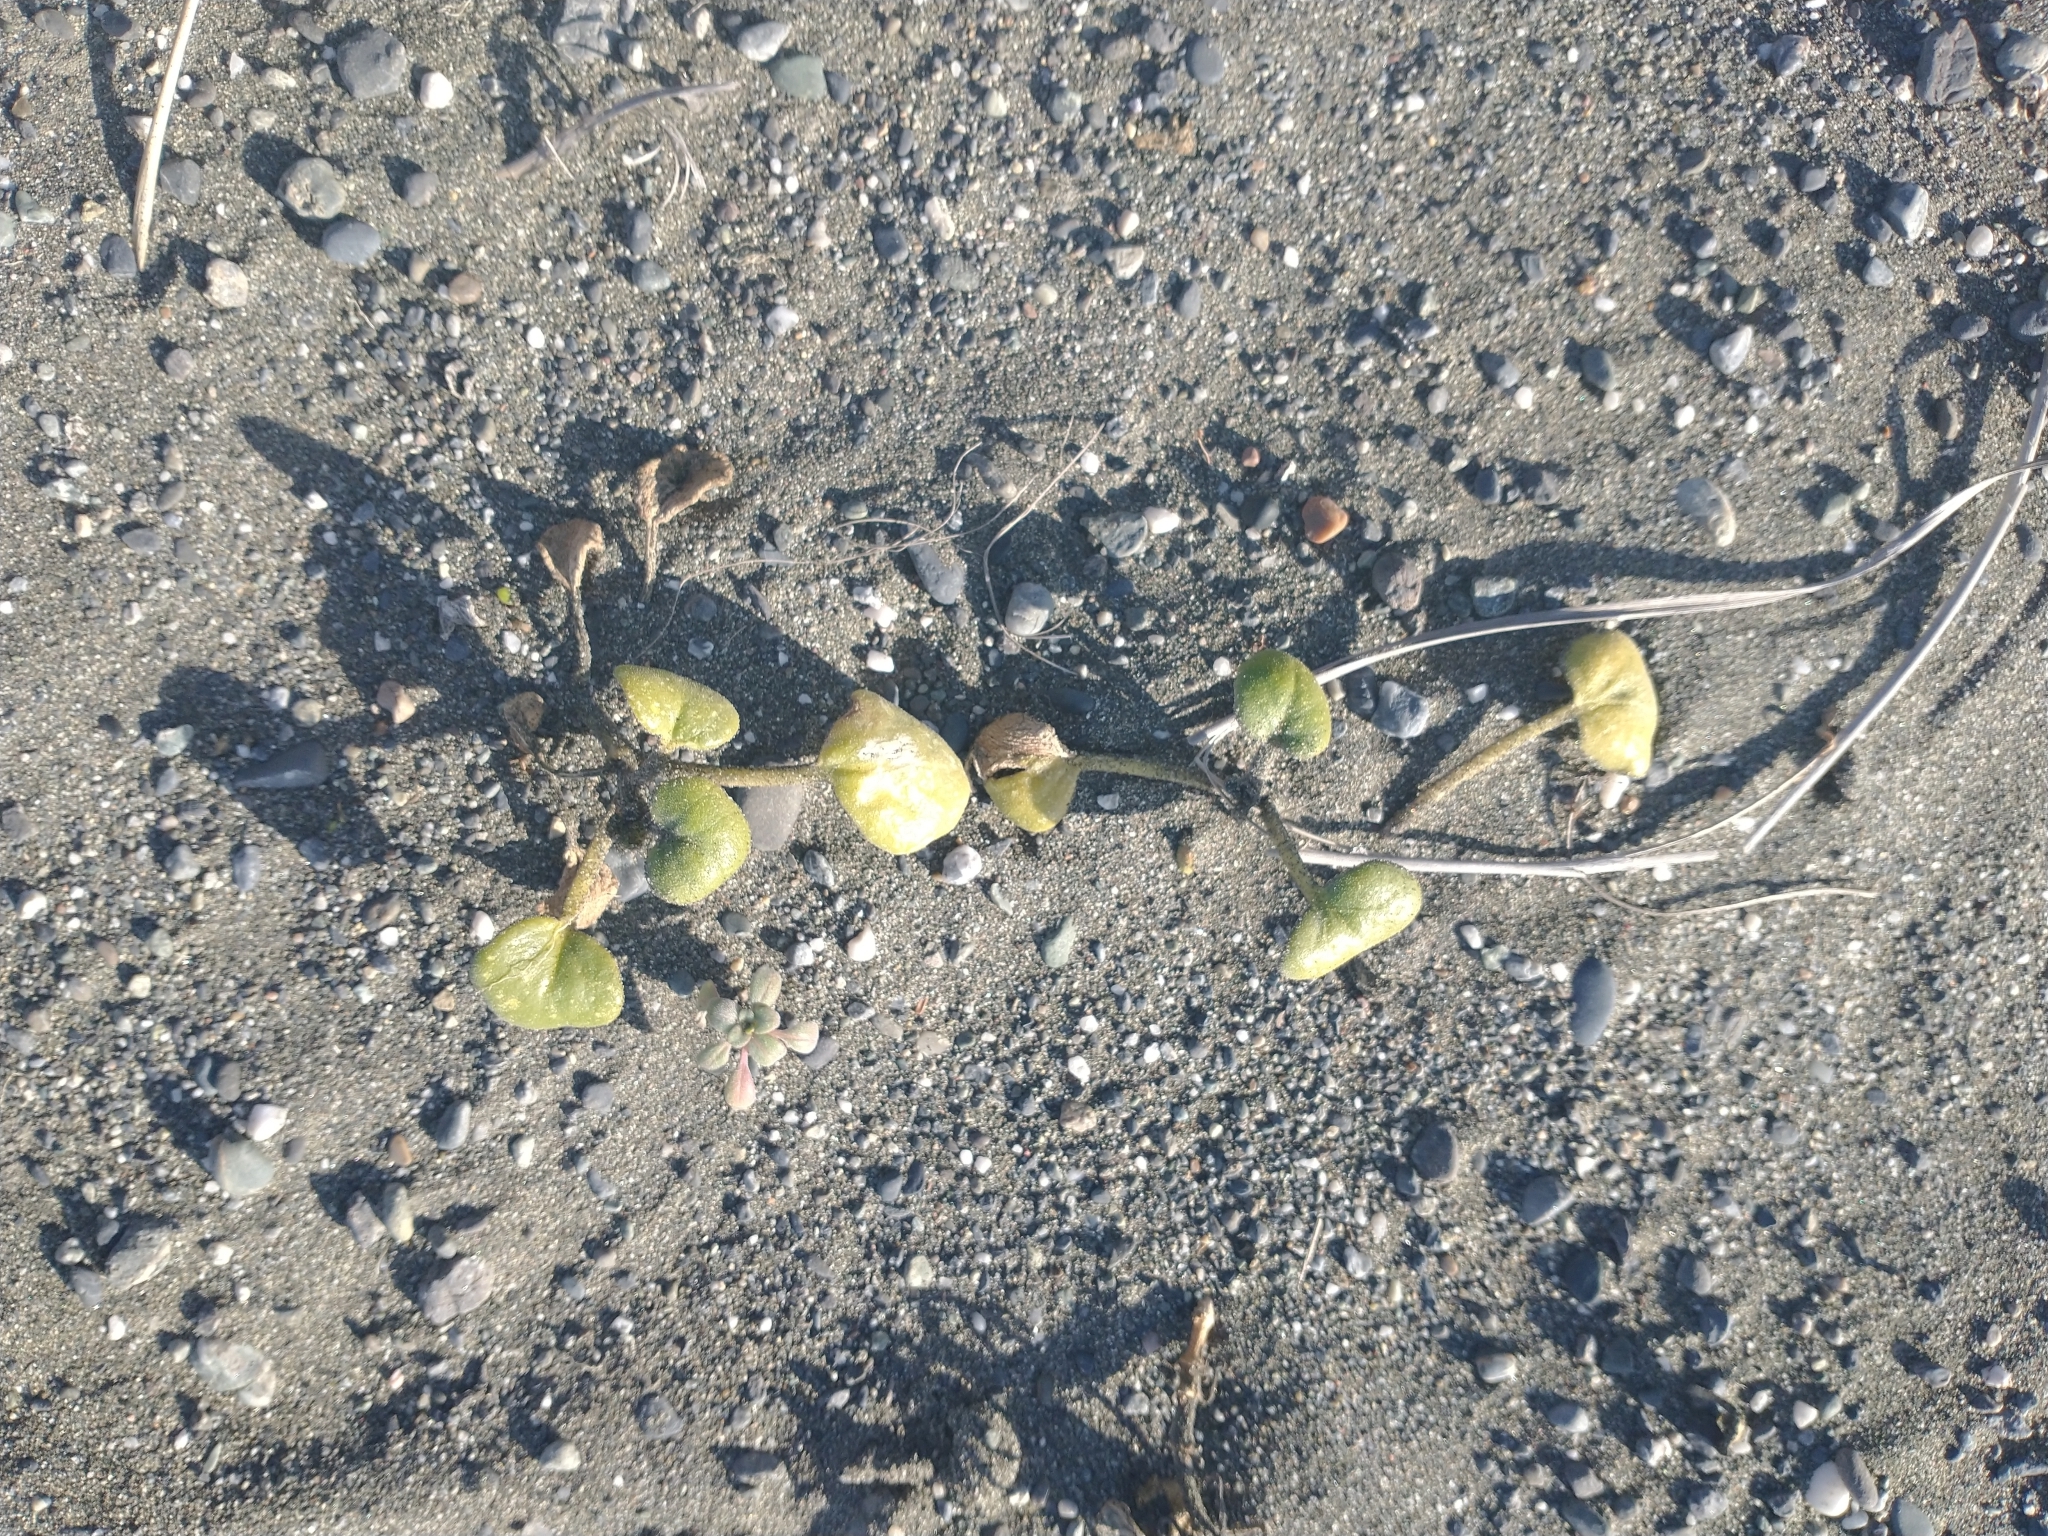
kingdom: Plantae
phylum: Tracheophyta
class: Magnoliopsida
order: Caryophyllales
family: Nyctaginaceae
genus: Abronia
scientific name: Abronia latifolia
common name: Yellow sand-verbena
